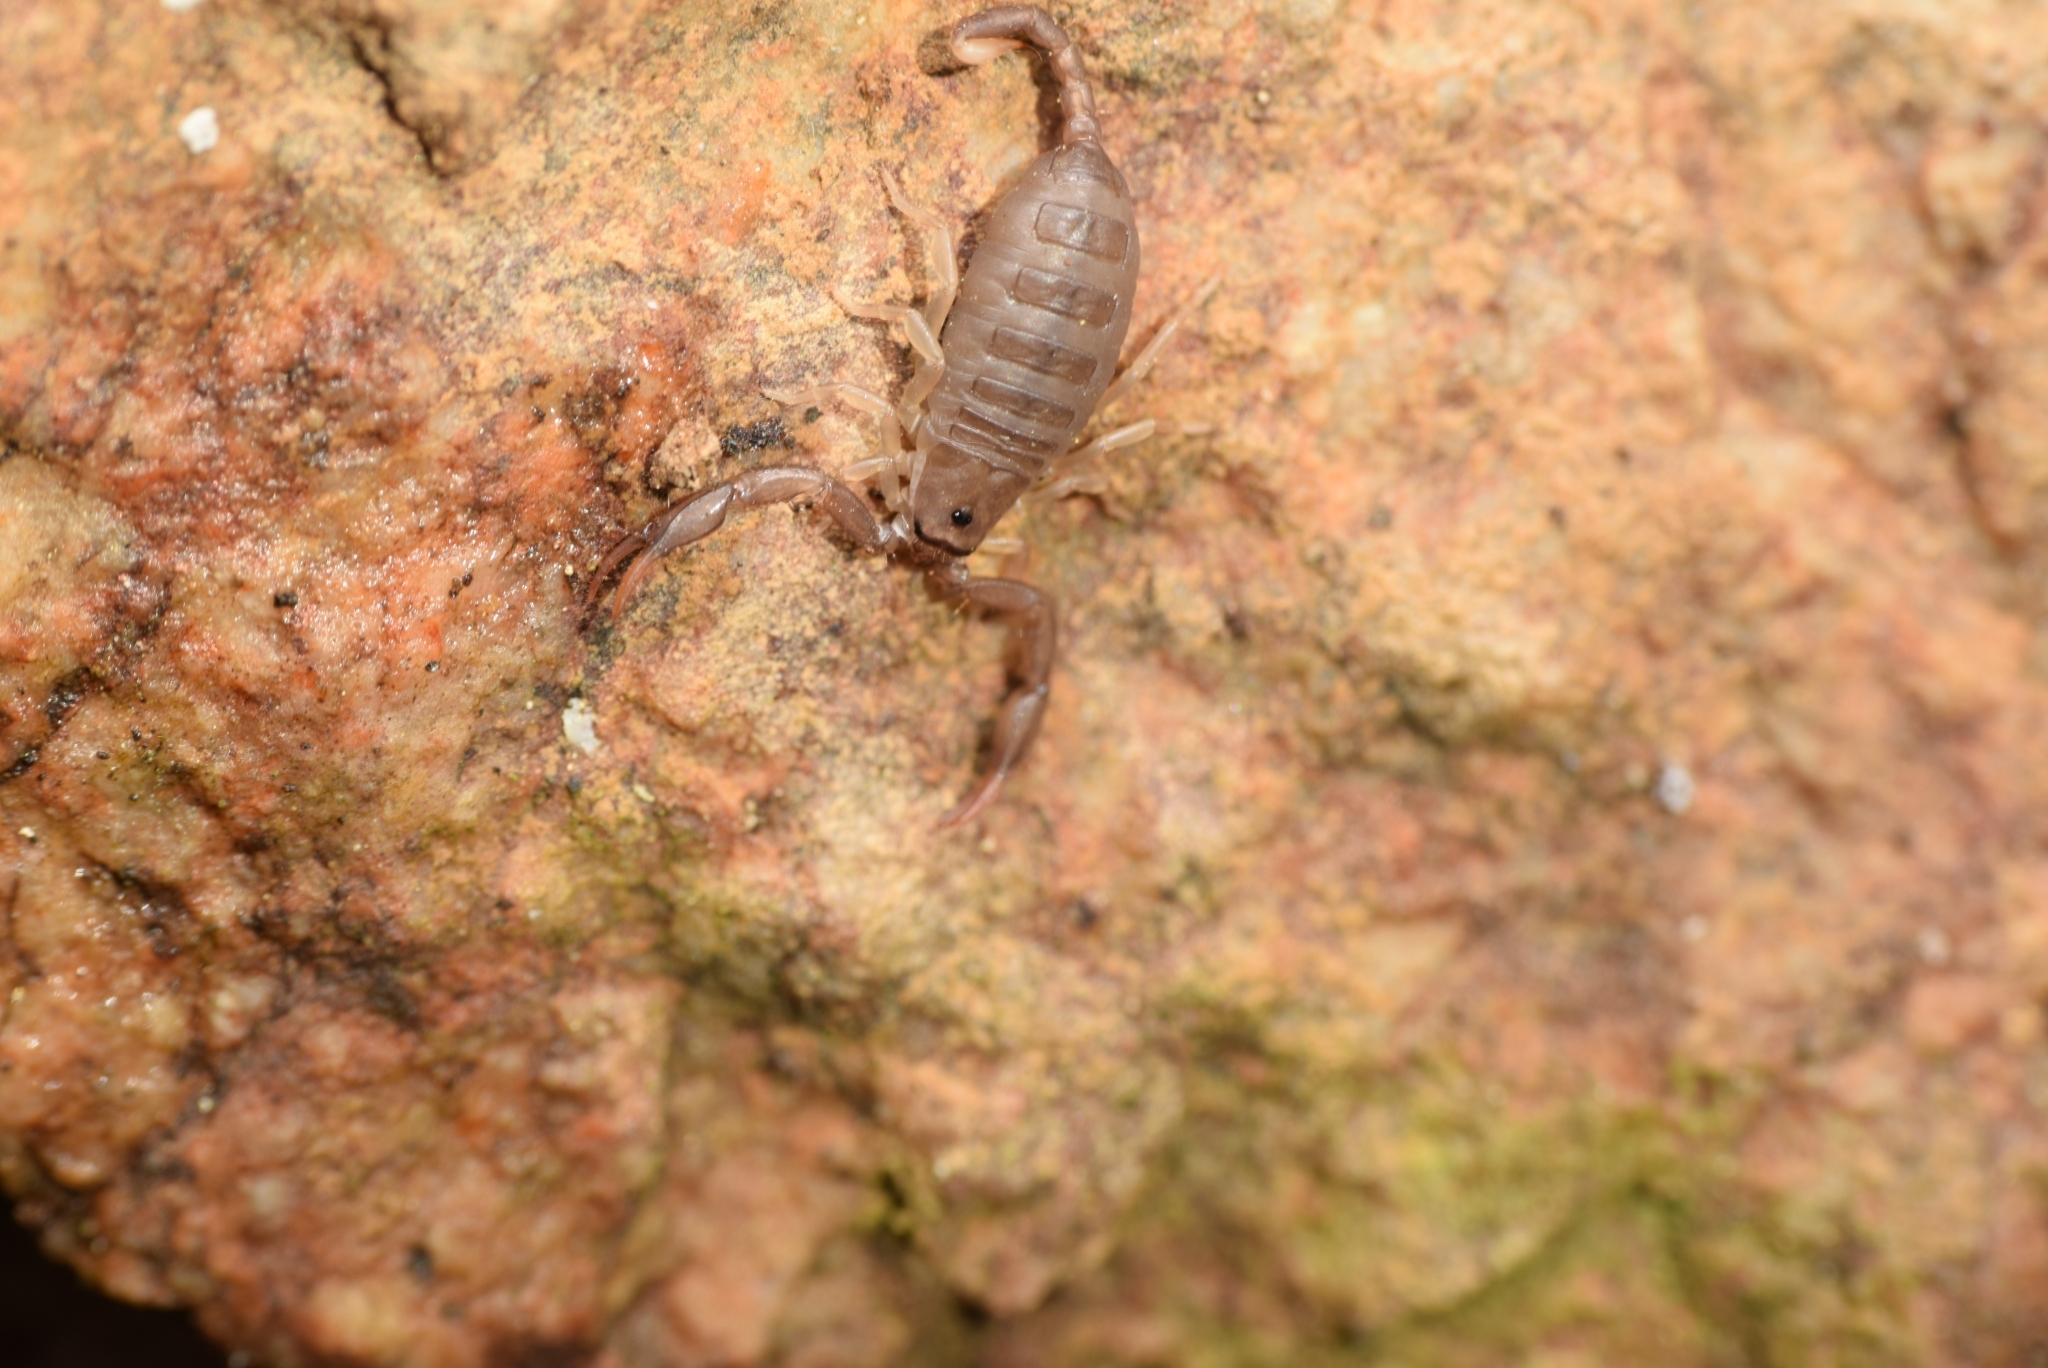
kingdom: Animalia
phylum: Arthropoda
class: Arachnida
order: Scorpiones
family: Euscorpiidae
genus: Euscorpius
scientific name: Euscorpius flavicaudis
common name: European yellow-tailed scorpion
